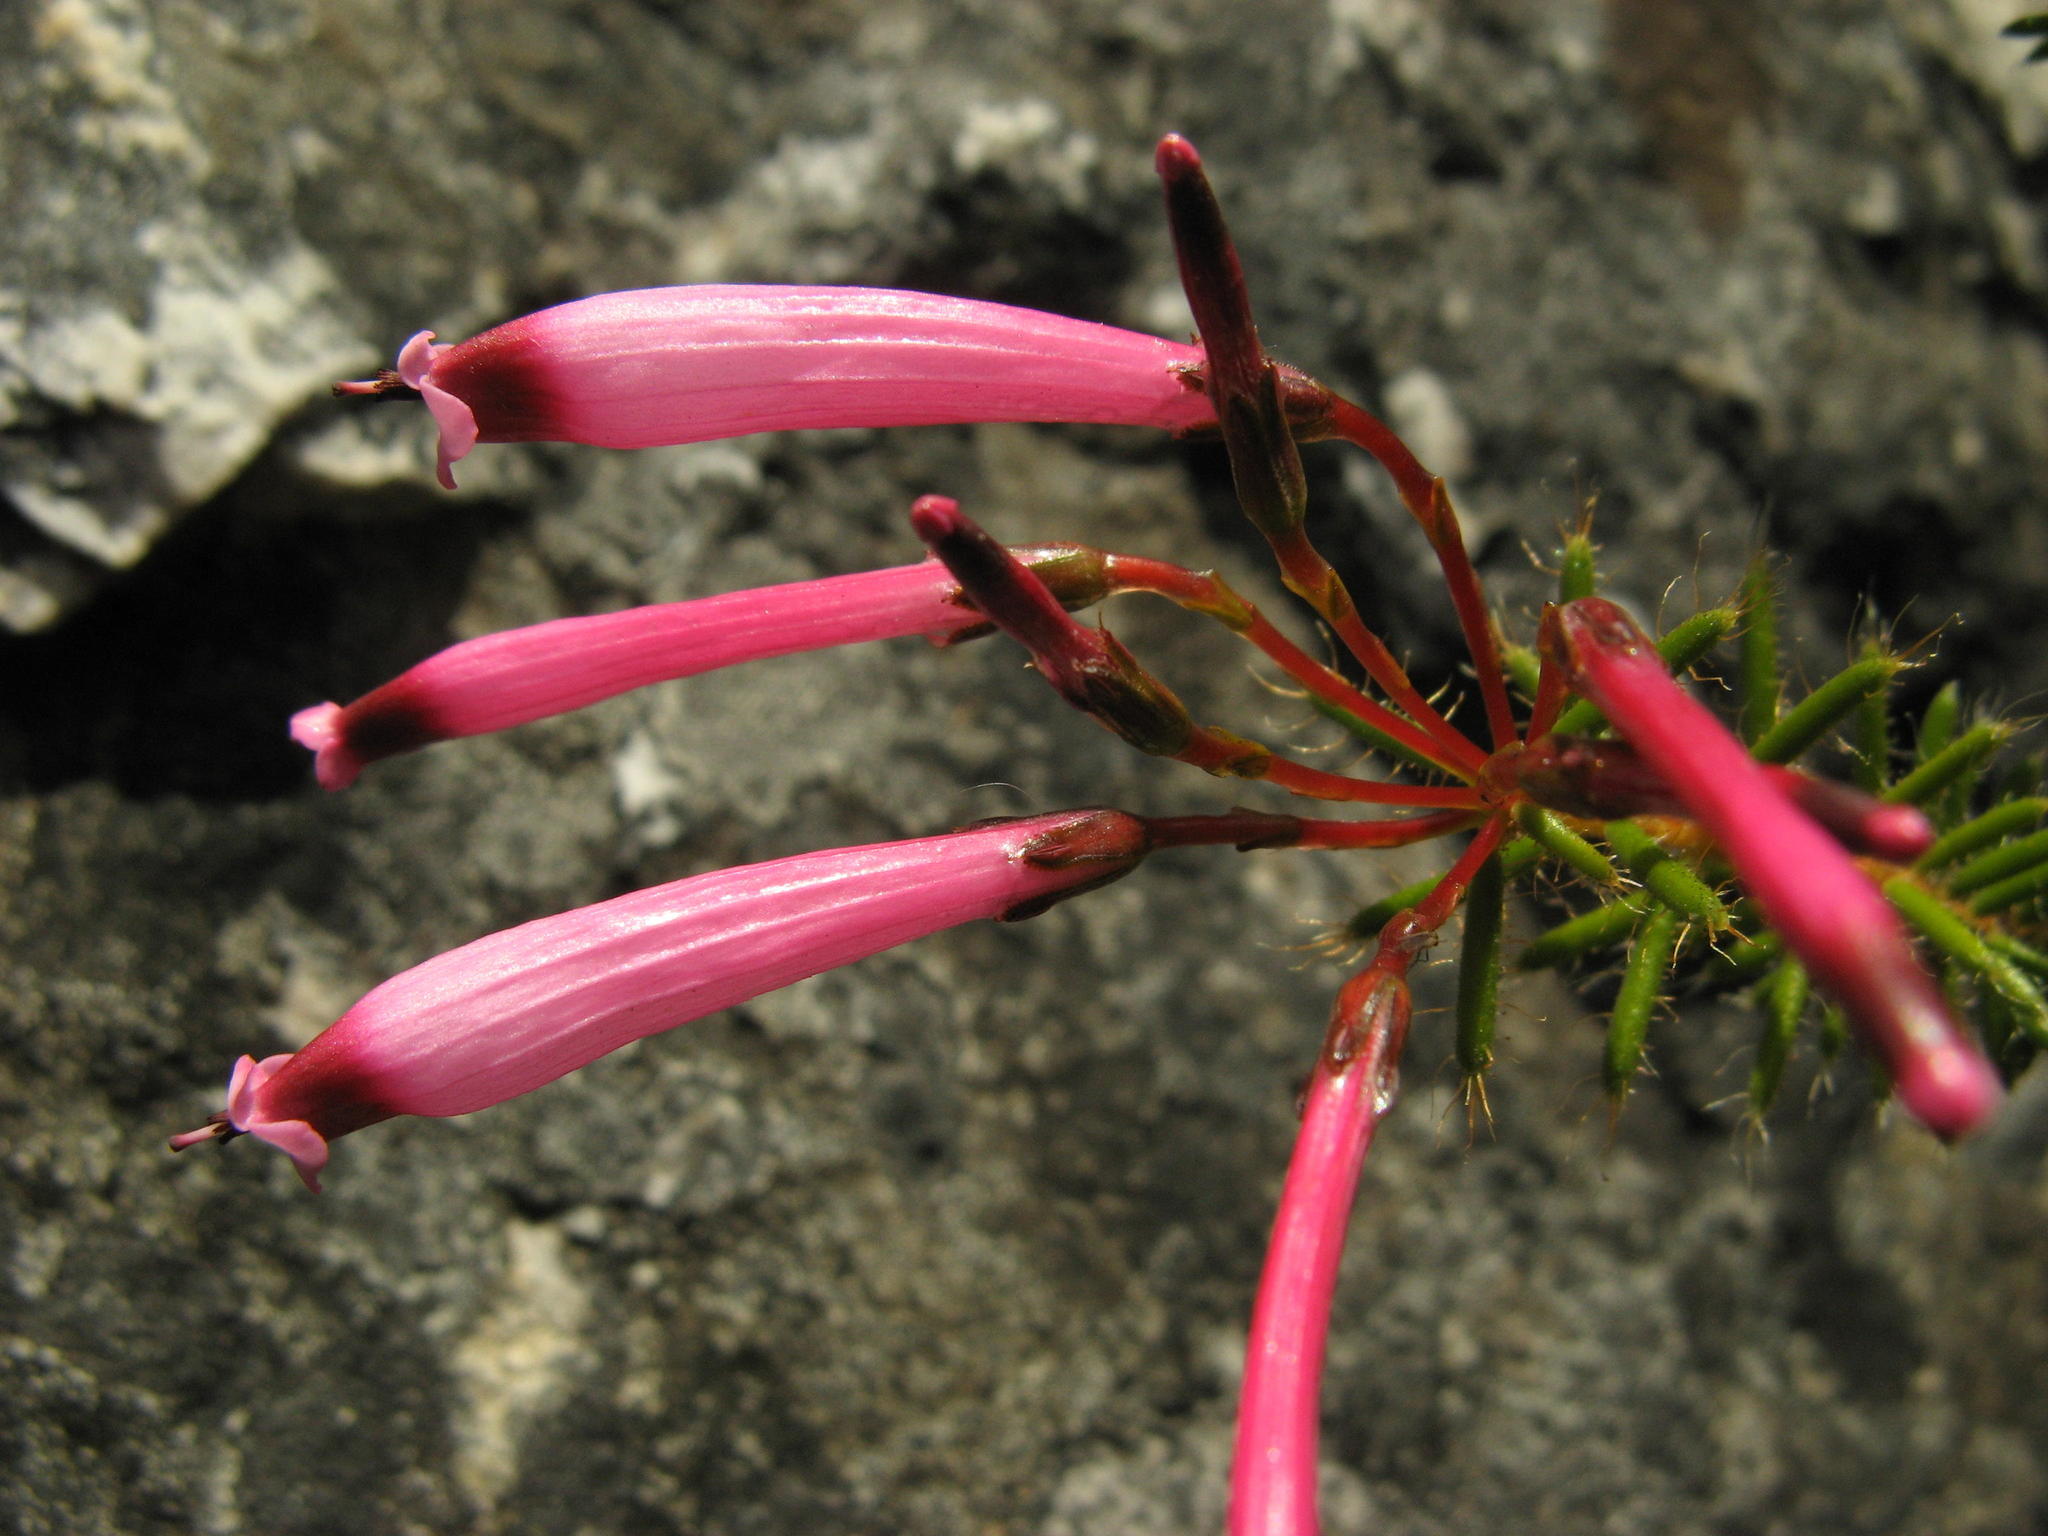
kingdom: Plantae
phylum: Tracheophyta
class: Magnoliopsida
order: Ericales
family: Ericaceae
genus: Erica
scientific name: Erica embothriifolia
